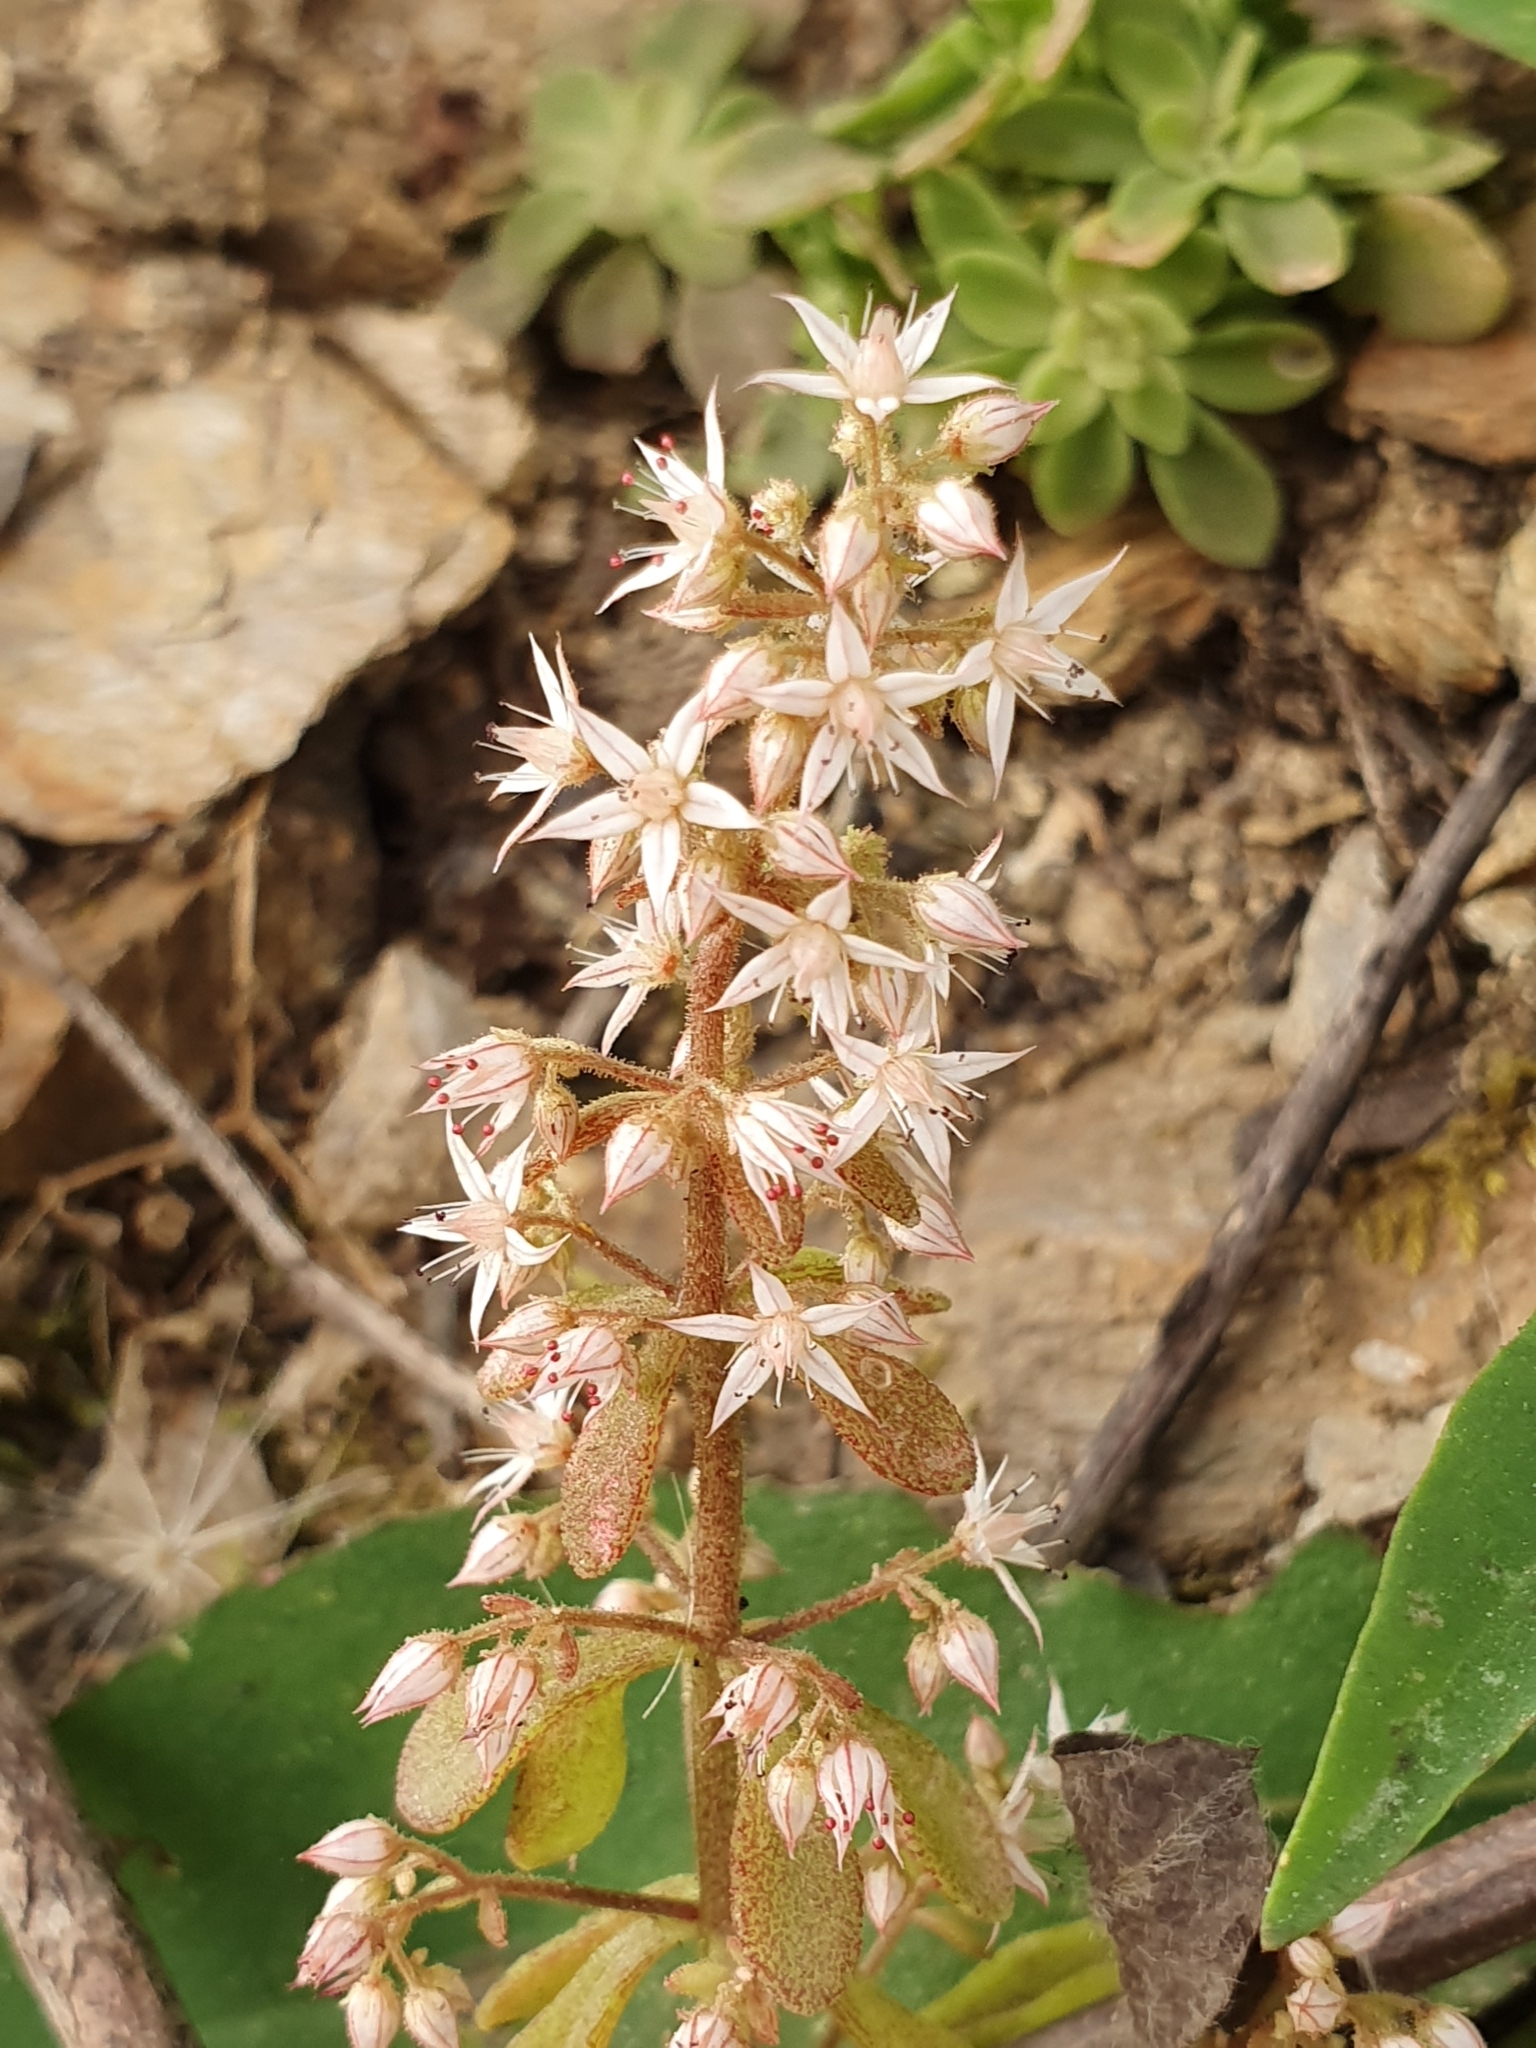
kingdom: Plantae
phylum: Tracheophyta
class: Magnoliopsida
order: Saxifragales
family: Crassulaceae
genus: Sedum
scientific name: Sedum cepaea
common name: Pink stonecrop
